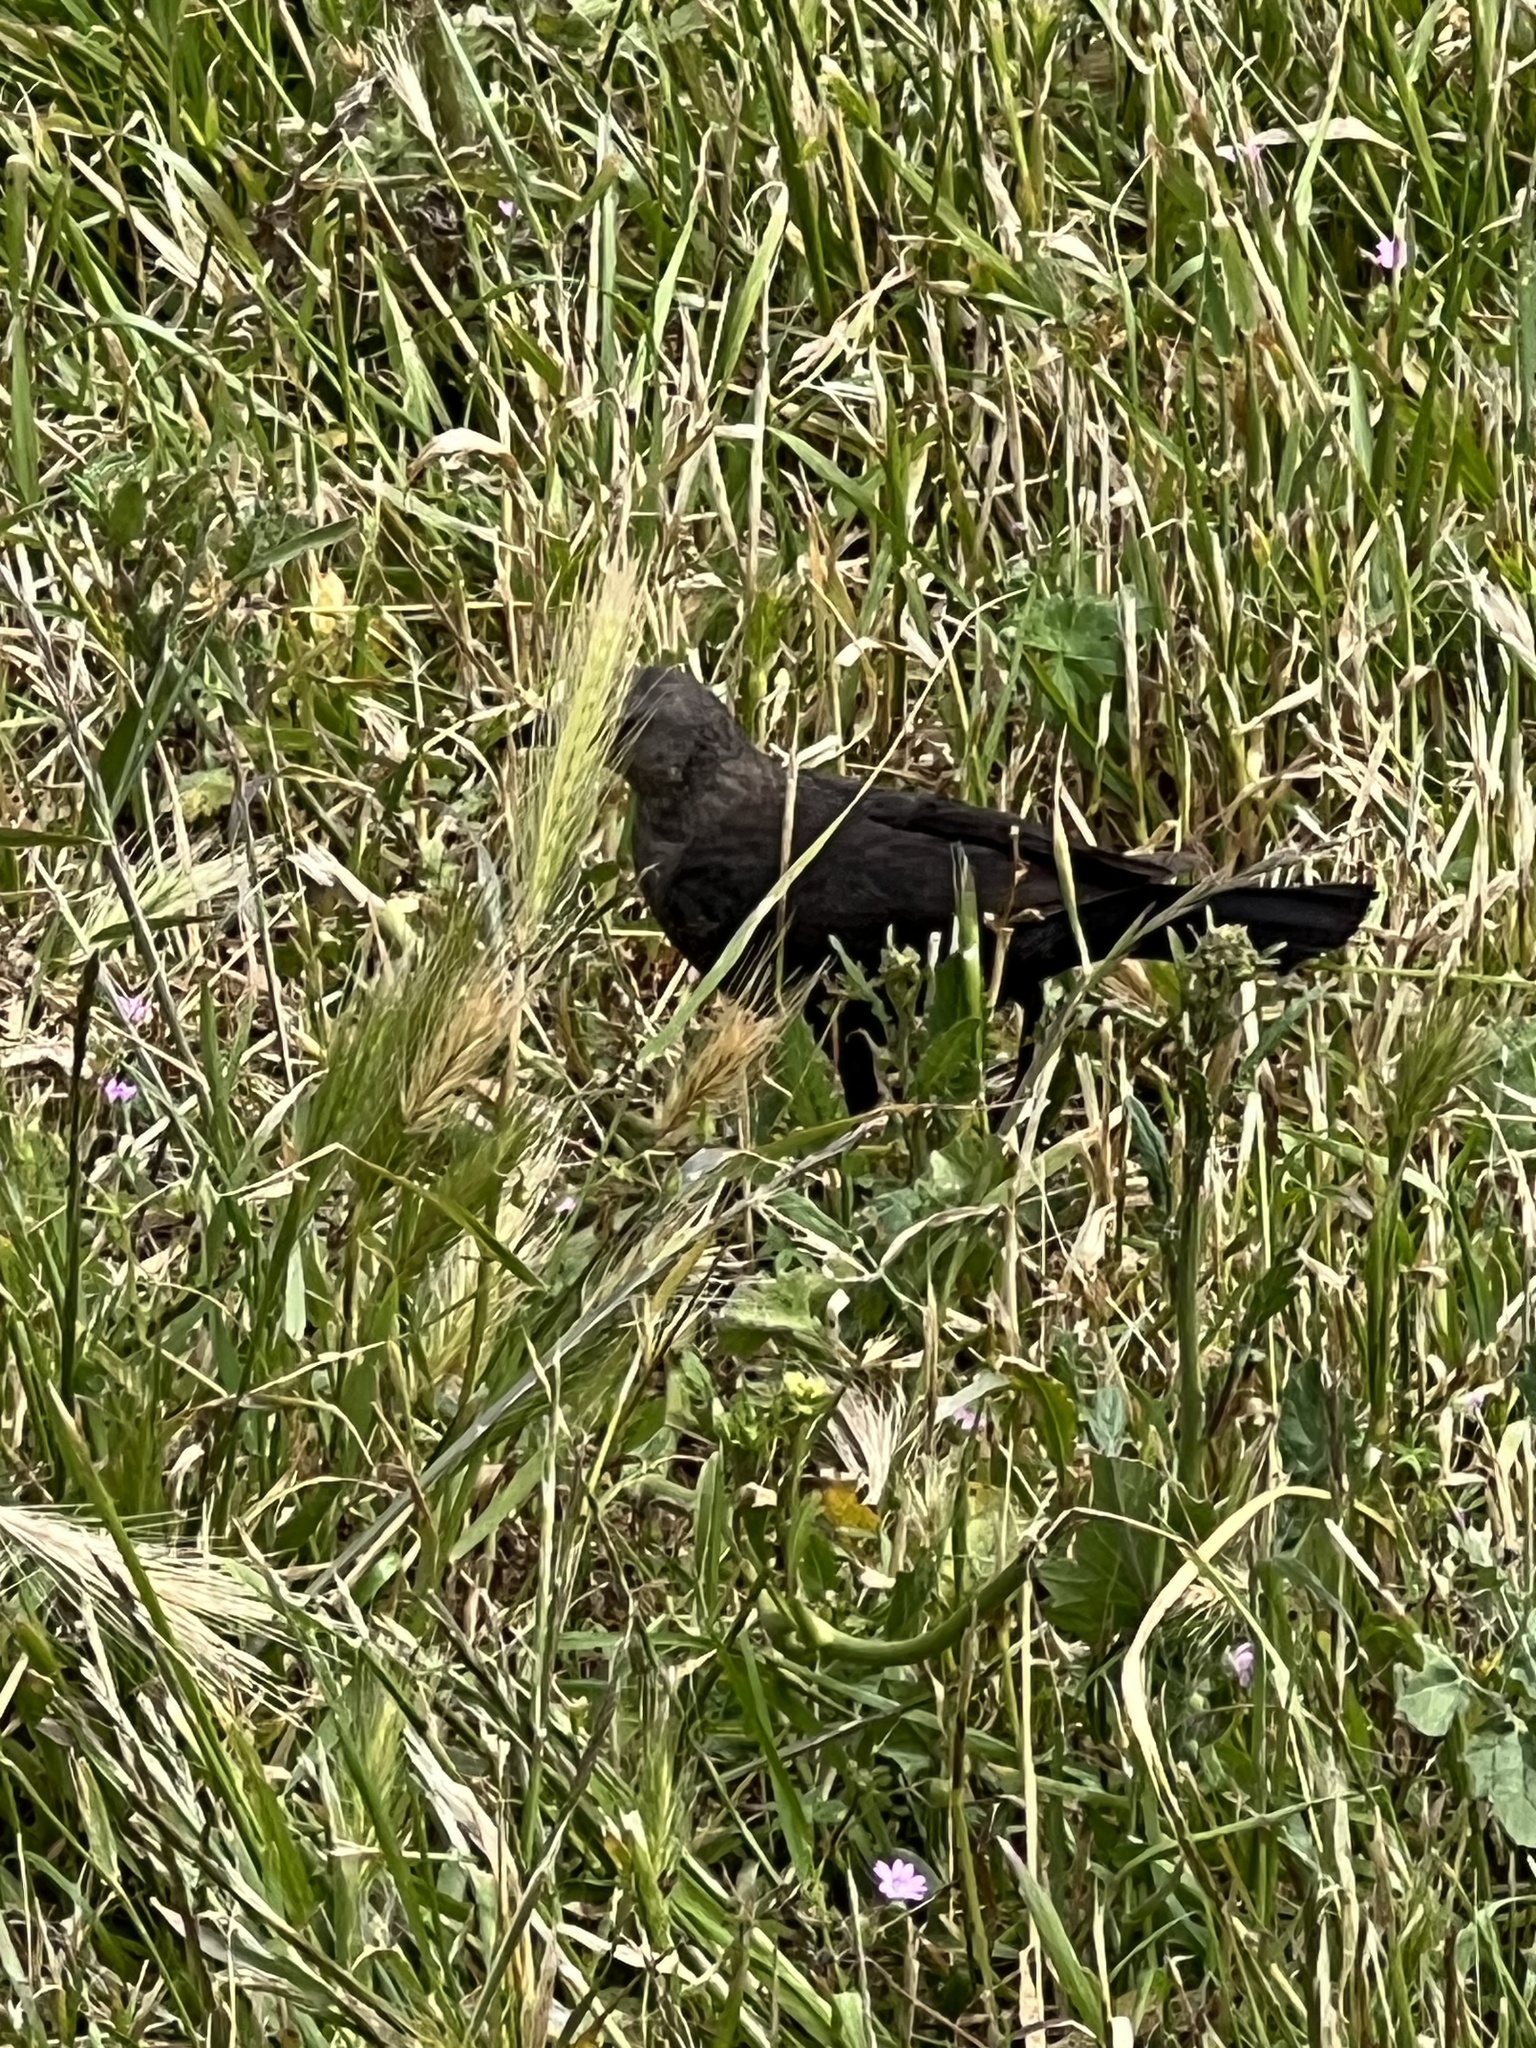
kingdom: Animalia
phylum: Chordata
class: Aves
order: Passeriformes
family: Icteridae
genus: Euphagus
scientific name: Euphagus cyanocephalus
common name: Brewer's blackbird
